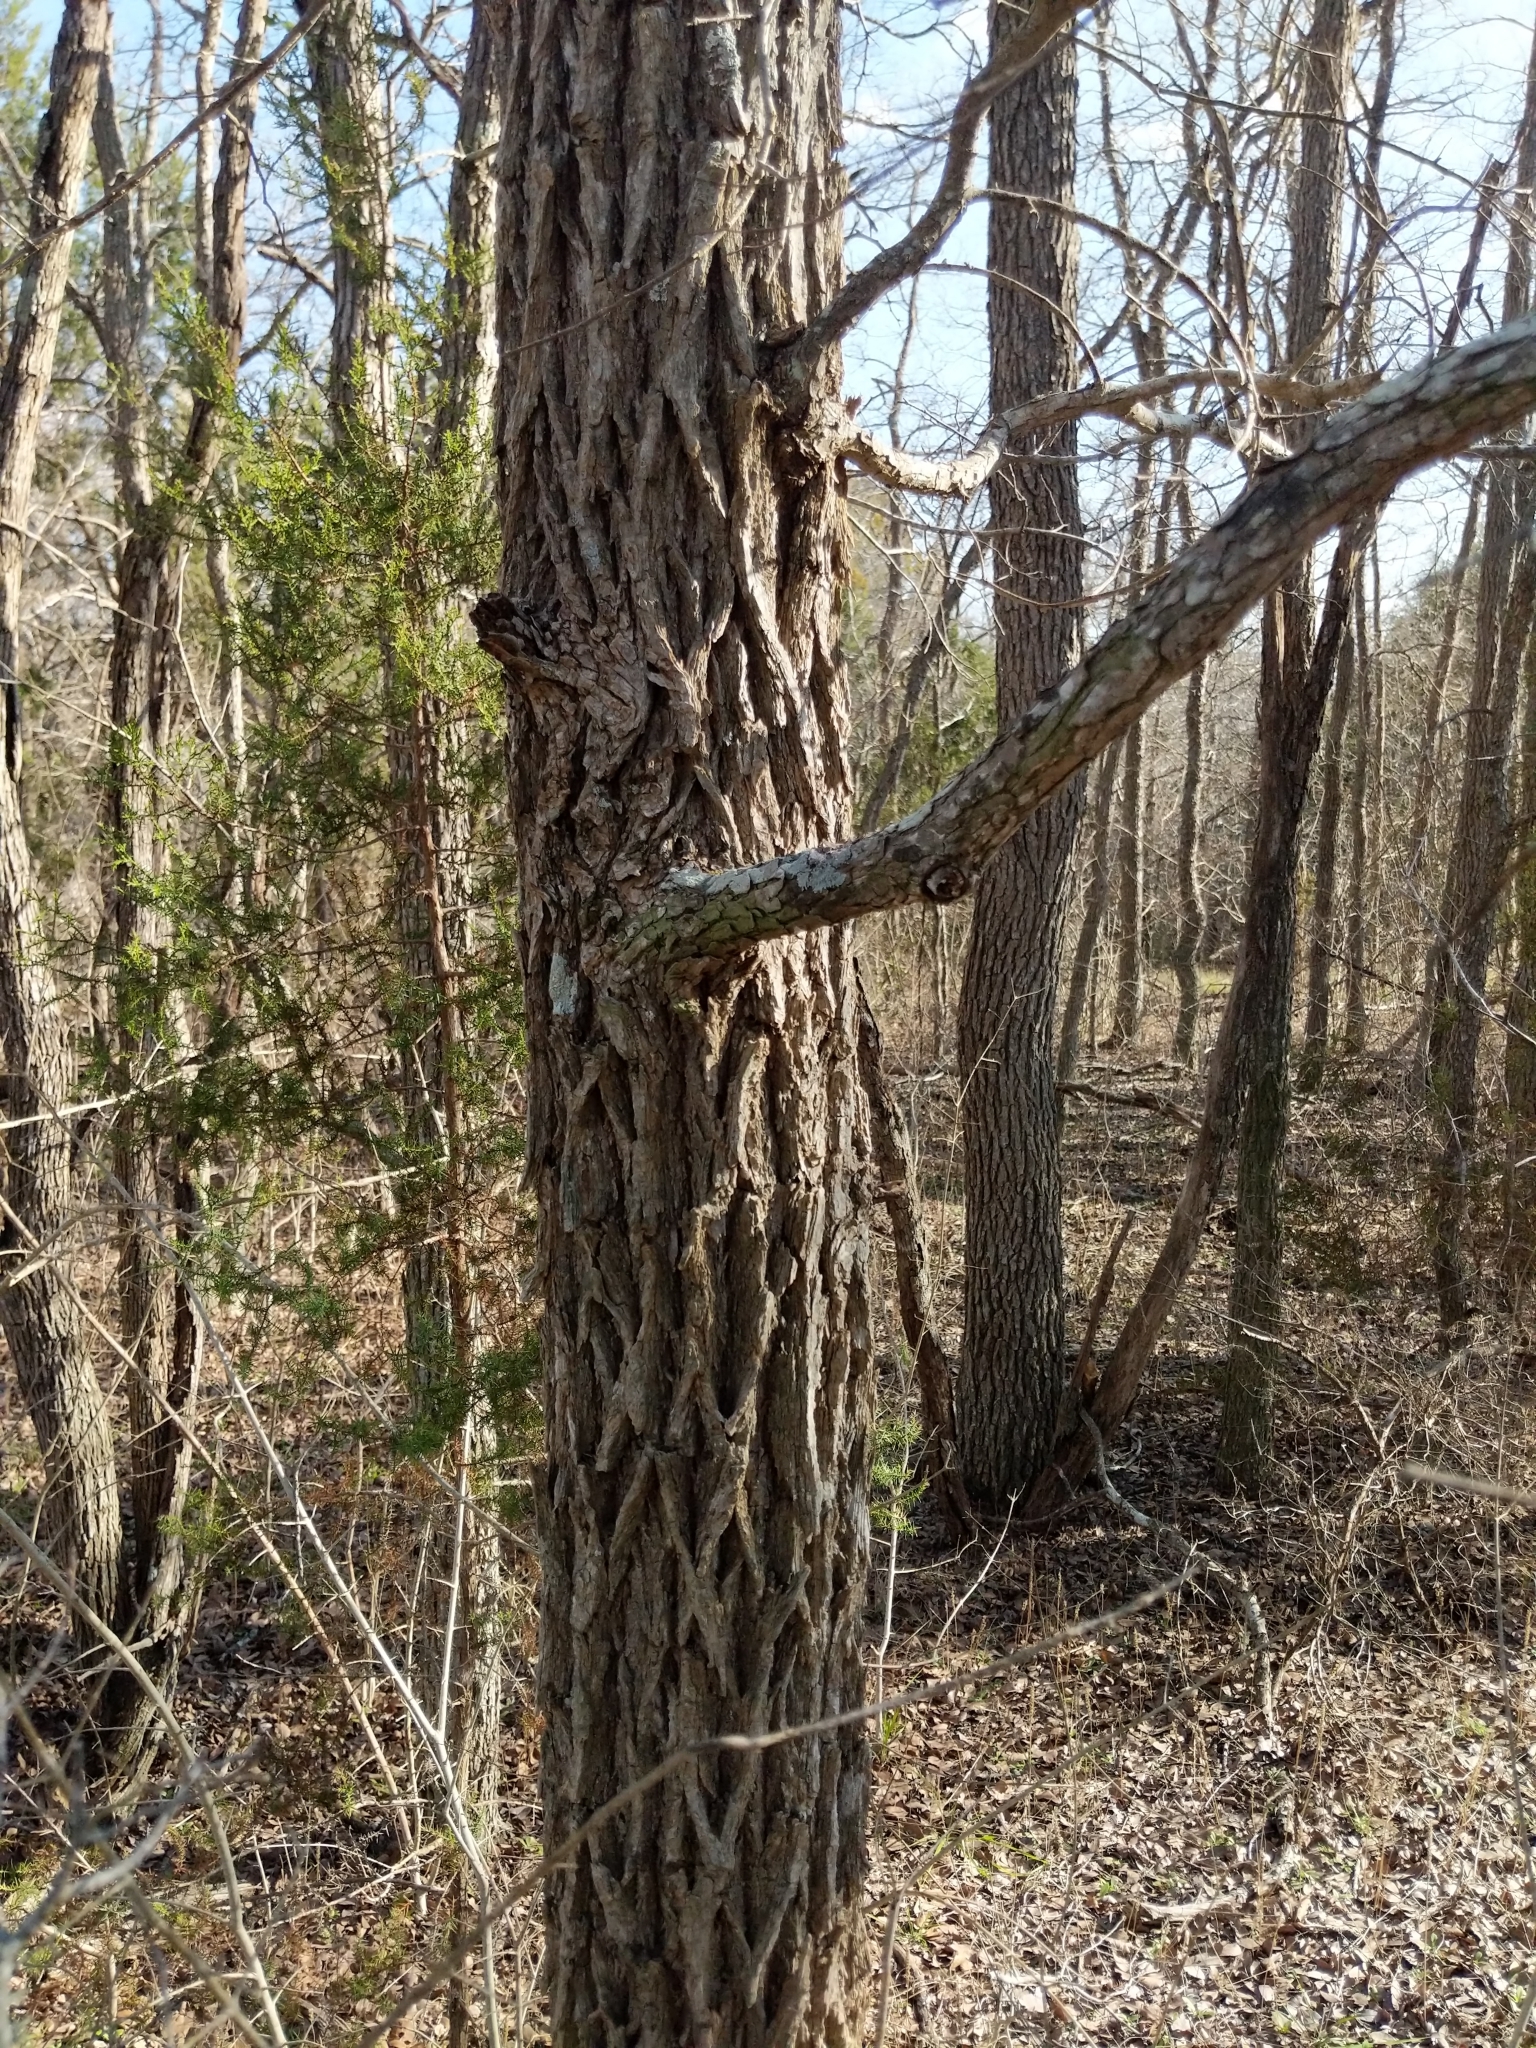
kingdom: Plantae
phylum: Tracheophyta
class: Magnoliopsida
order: Rosales
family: Ulmaceae
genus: Ulmus
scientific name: Ulmus crassifolia
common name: Basket elm
